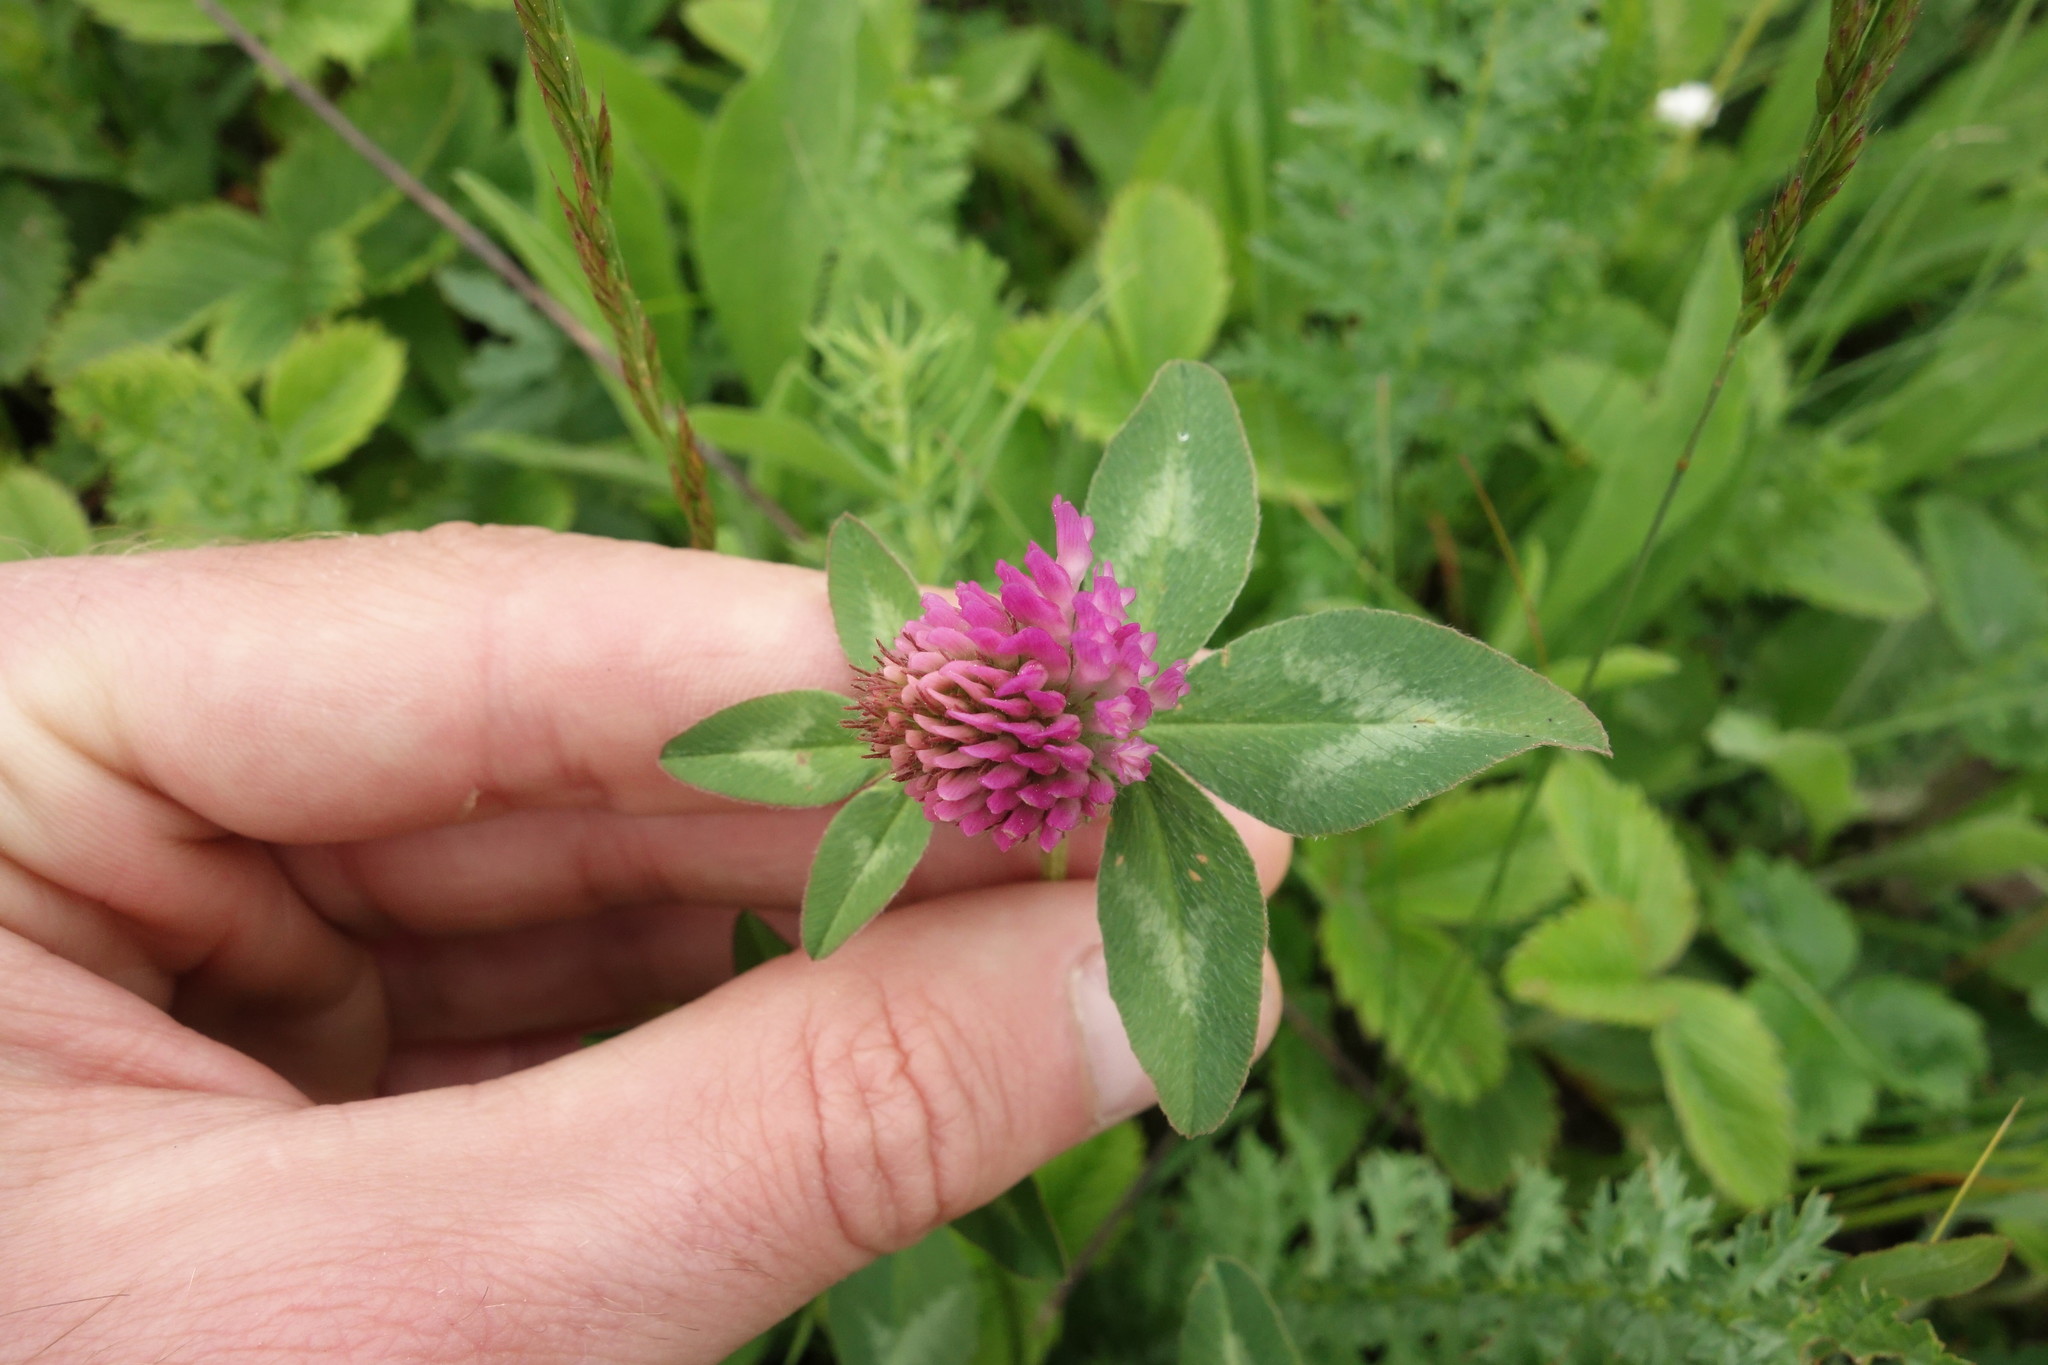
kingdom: Plantae
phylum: Tracheophyta
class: Magnoliopsida
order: Fabales
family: Fabaceae
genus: Trifolium
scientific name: Trifolium pratense
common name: Red clover
